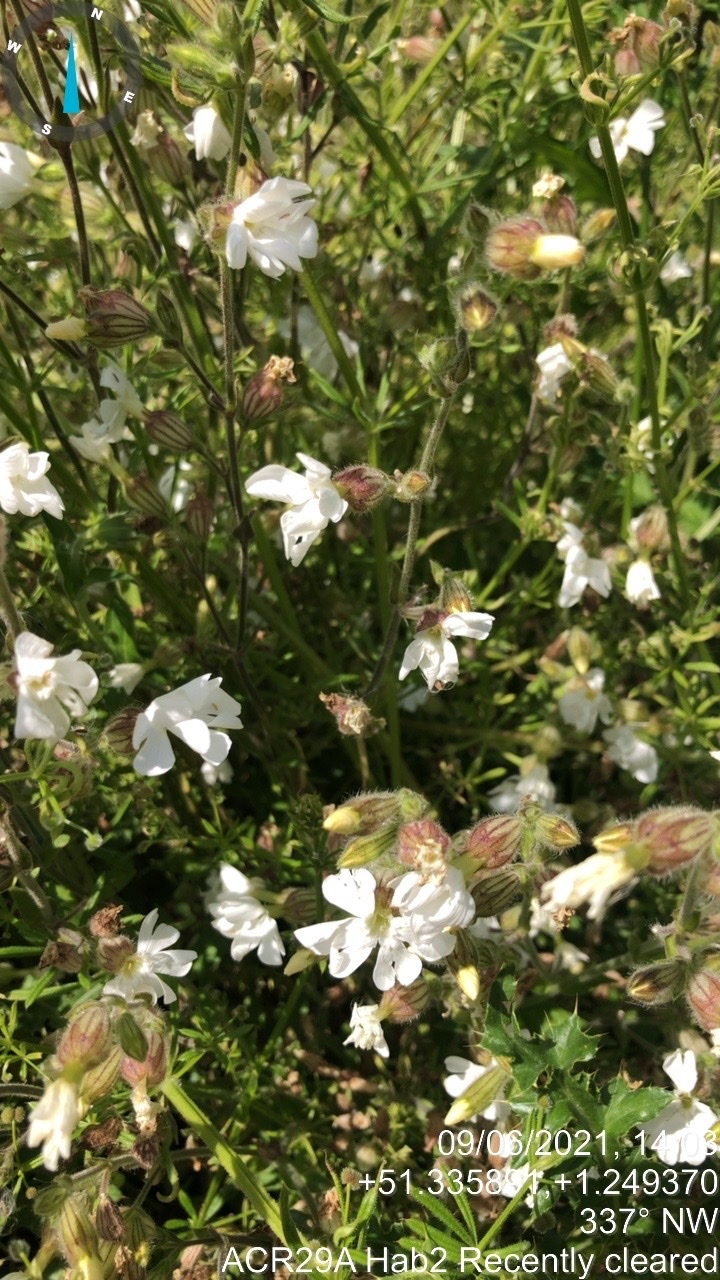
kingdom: Plantae
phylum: Tracheophyta
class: Magnoliopsida
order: Caryophyllales
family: Caryophyllaceae
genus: Silene
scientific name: Silene latifolia
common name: White campion
